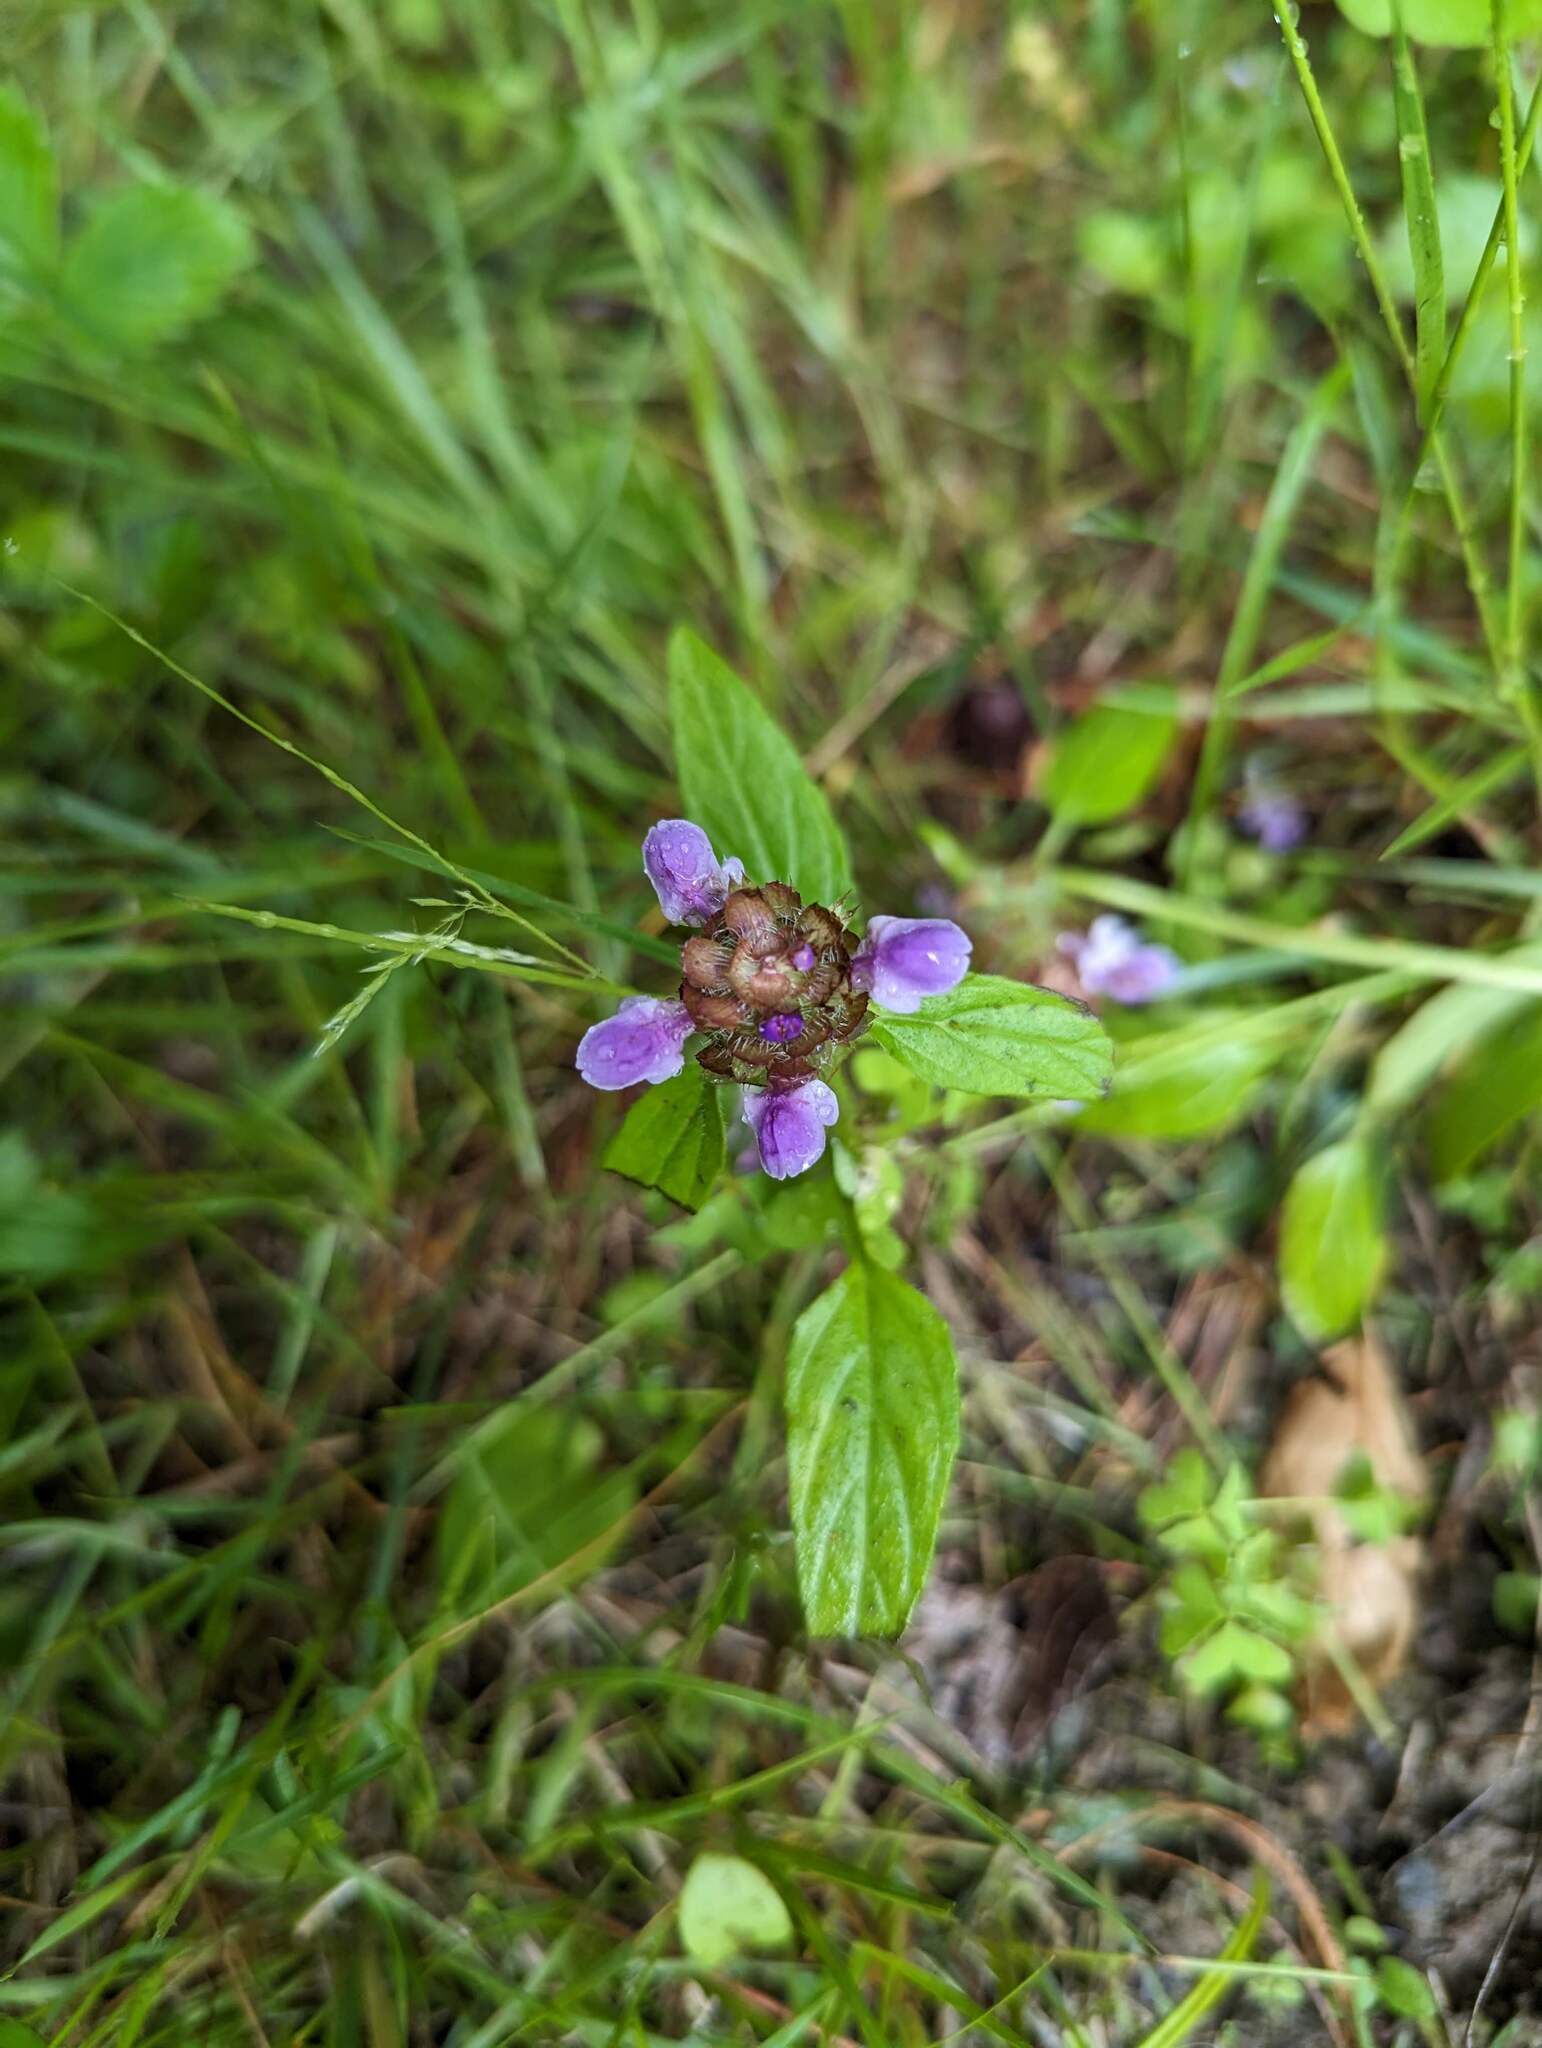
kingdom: Plantae
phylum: Tracheophyta
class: Magnoliopsida
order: Lamiales
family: Lamiaceae
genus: Prunella
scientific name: Prunella vulgaris
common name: Heal-all
